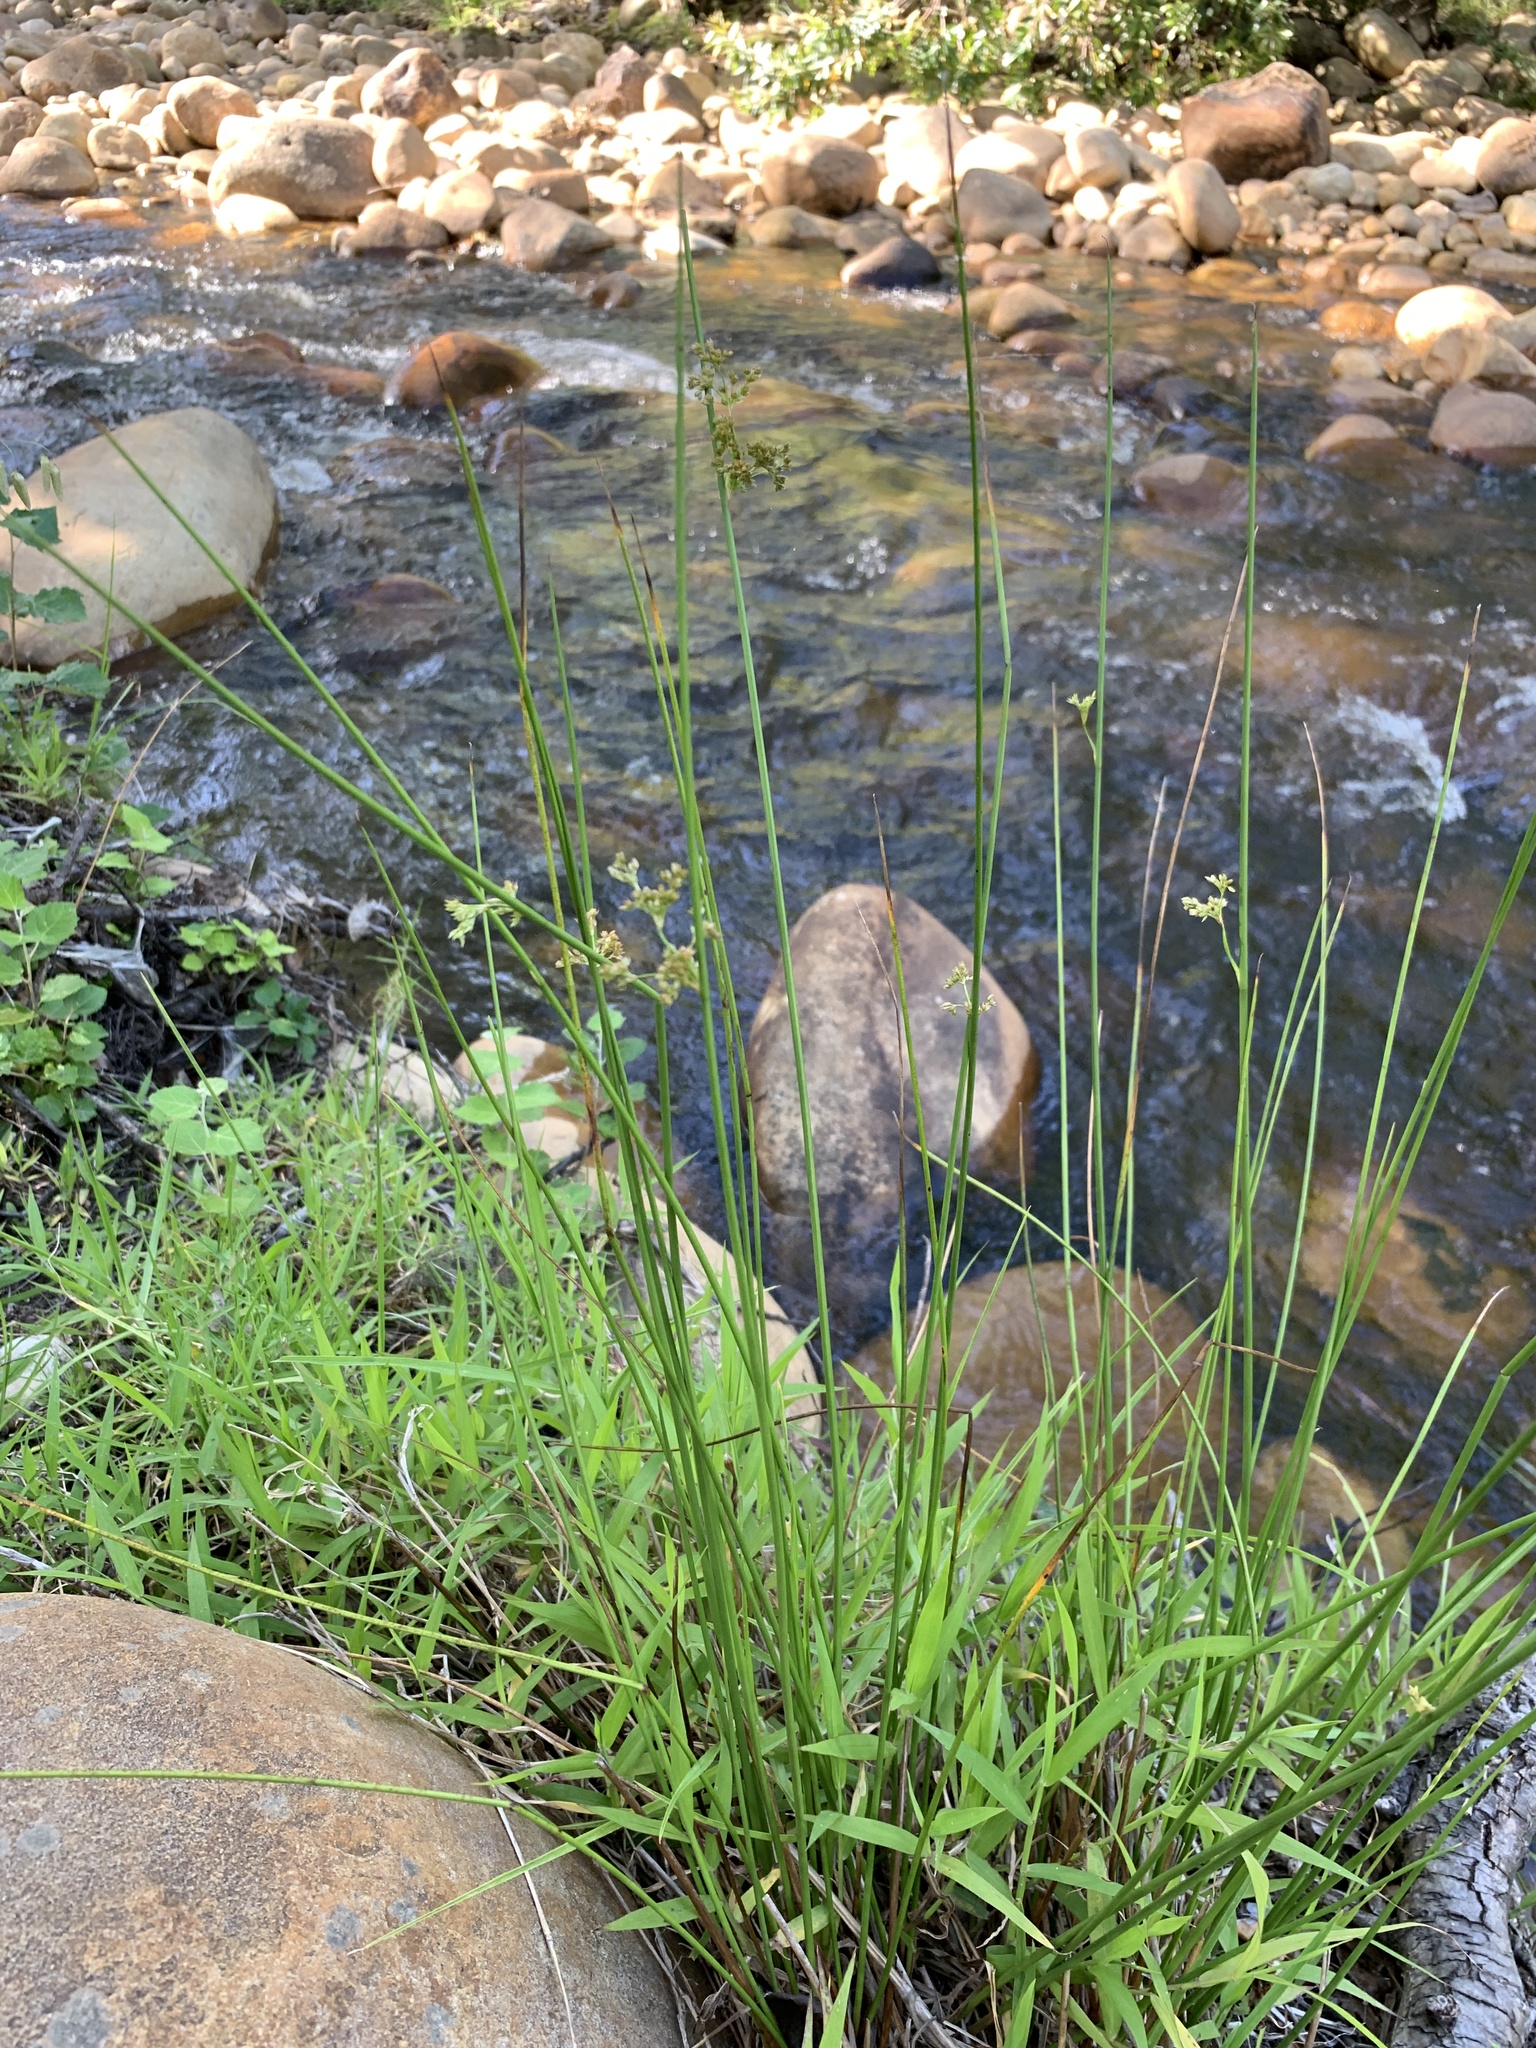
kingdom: Plantae
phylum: Tracheophyta
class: Liliopsida
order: Poales
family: Juncaceae
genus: Juncus
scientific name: Juncus effusus
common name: Soft rush
